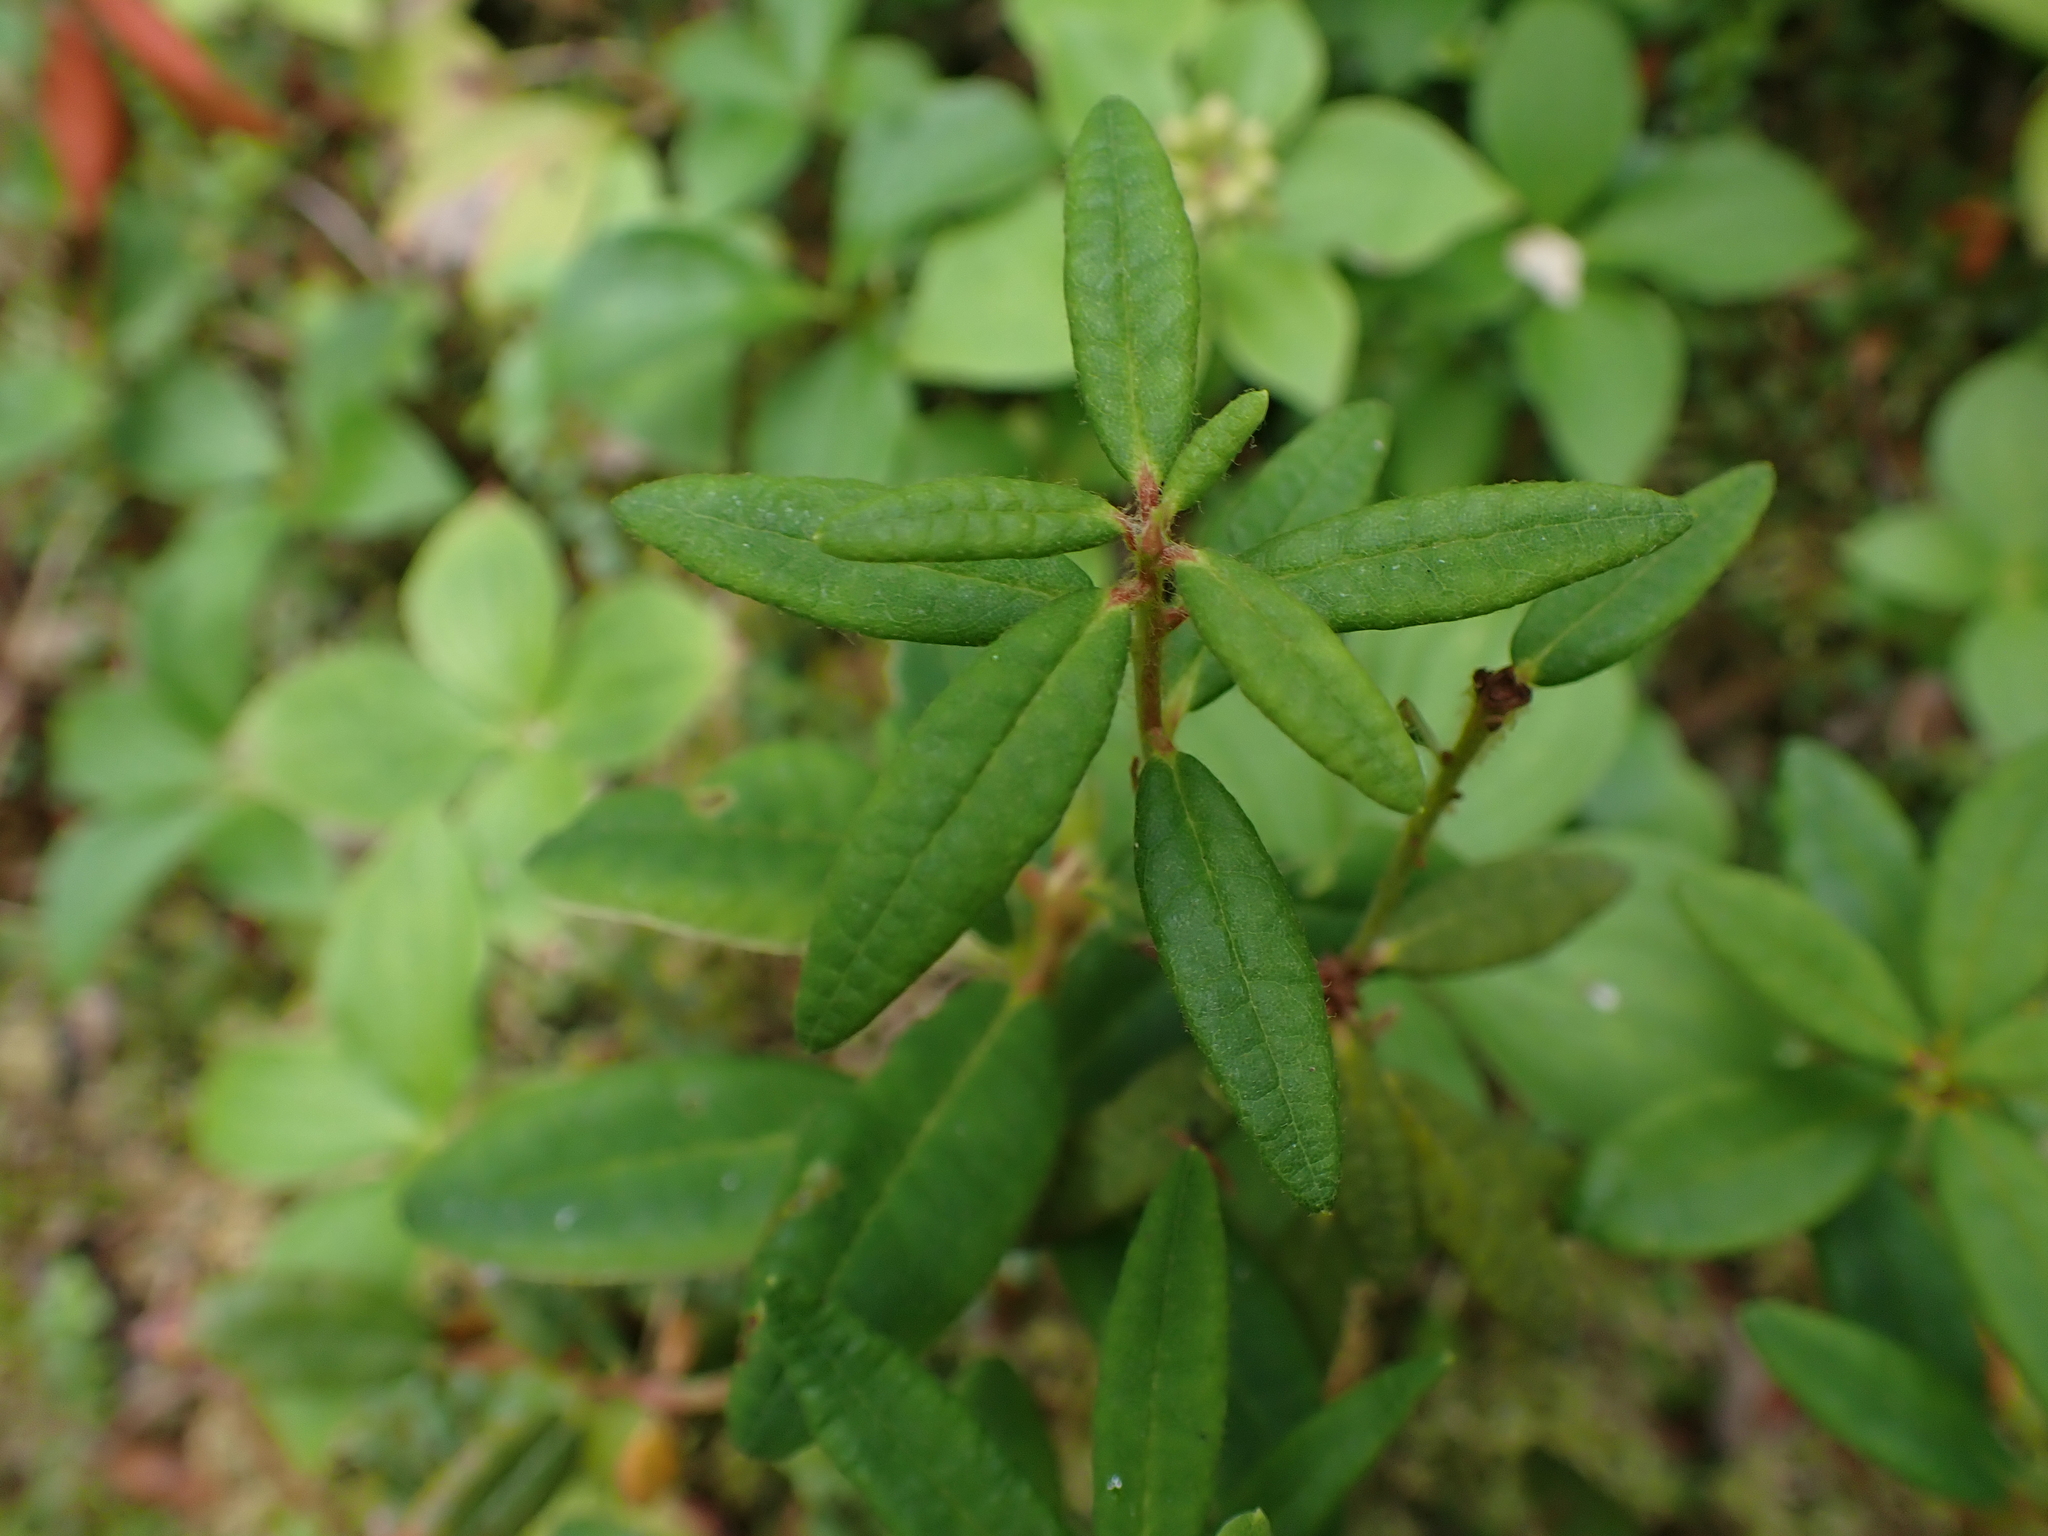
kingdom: Plantae
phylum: Tracheophyta
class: Magnoliopsida
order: Ericales
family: Ericaceae
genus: Rhododendron
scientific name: Rhododendron groenlandicum
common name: Bog labrador tea
